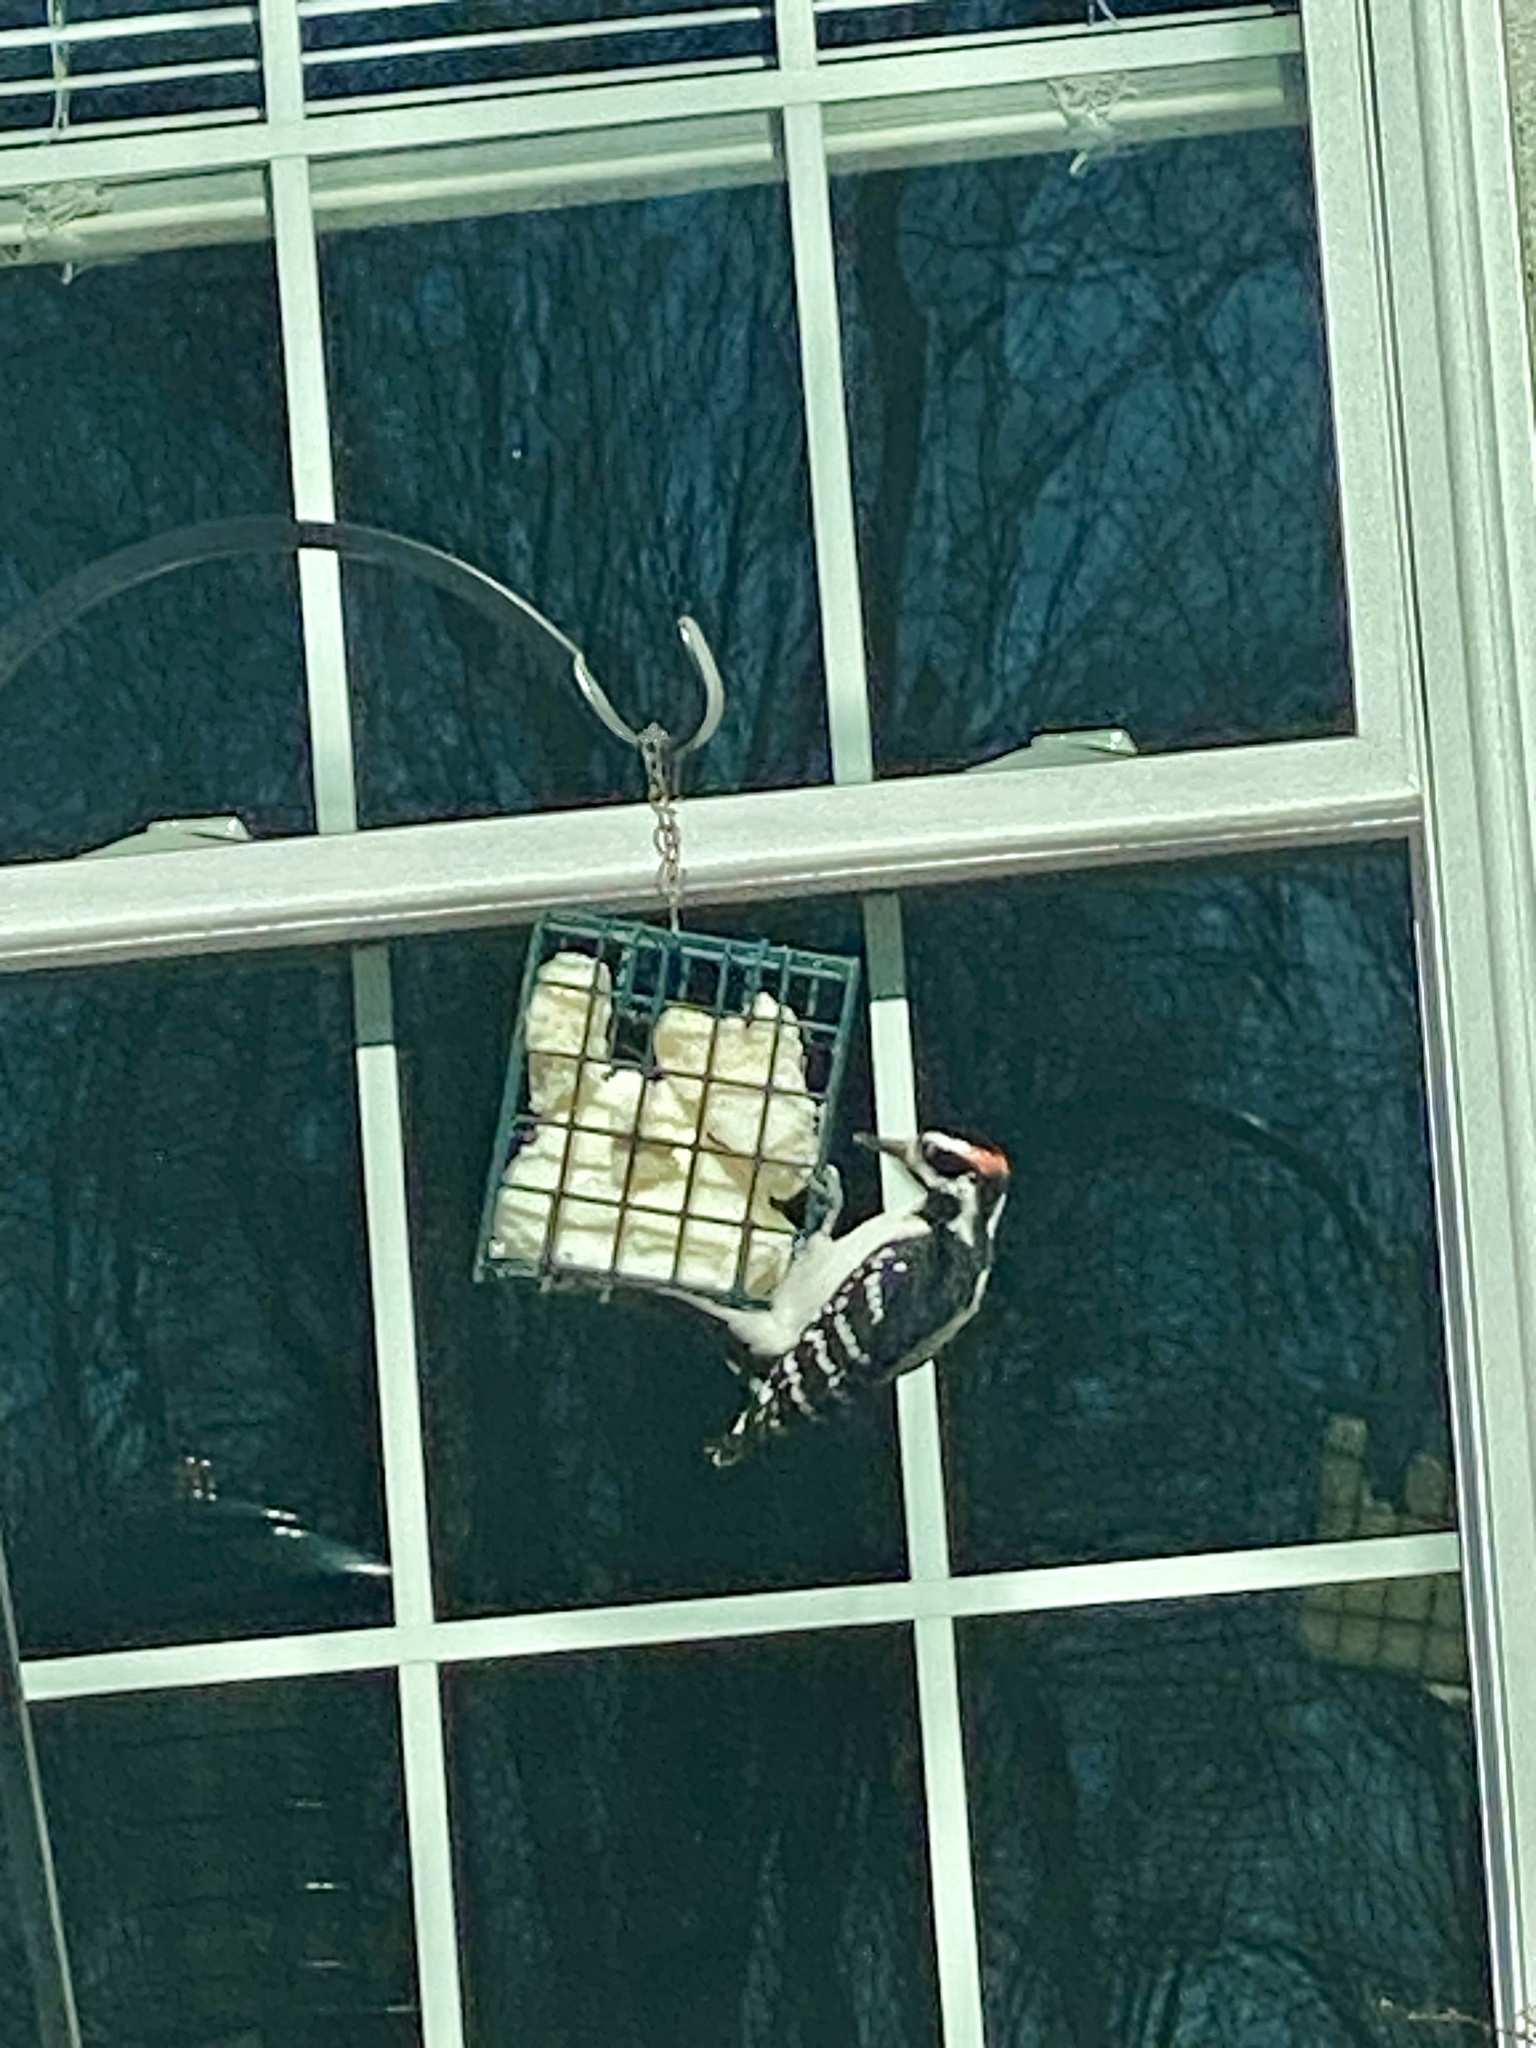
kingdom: Animalia
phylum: Chordata
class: Aves
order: Piciformes
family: Picidae
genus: Leuconotopicus
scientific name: Leuconotopicus villosus
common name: Hairy woodpecker
